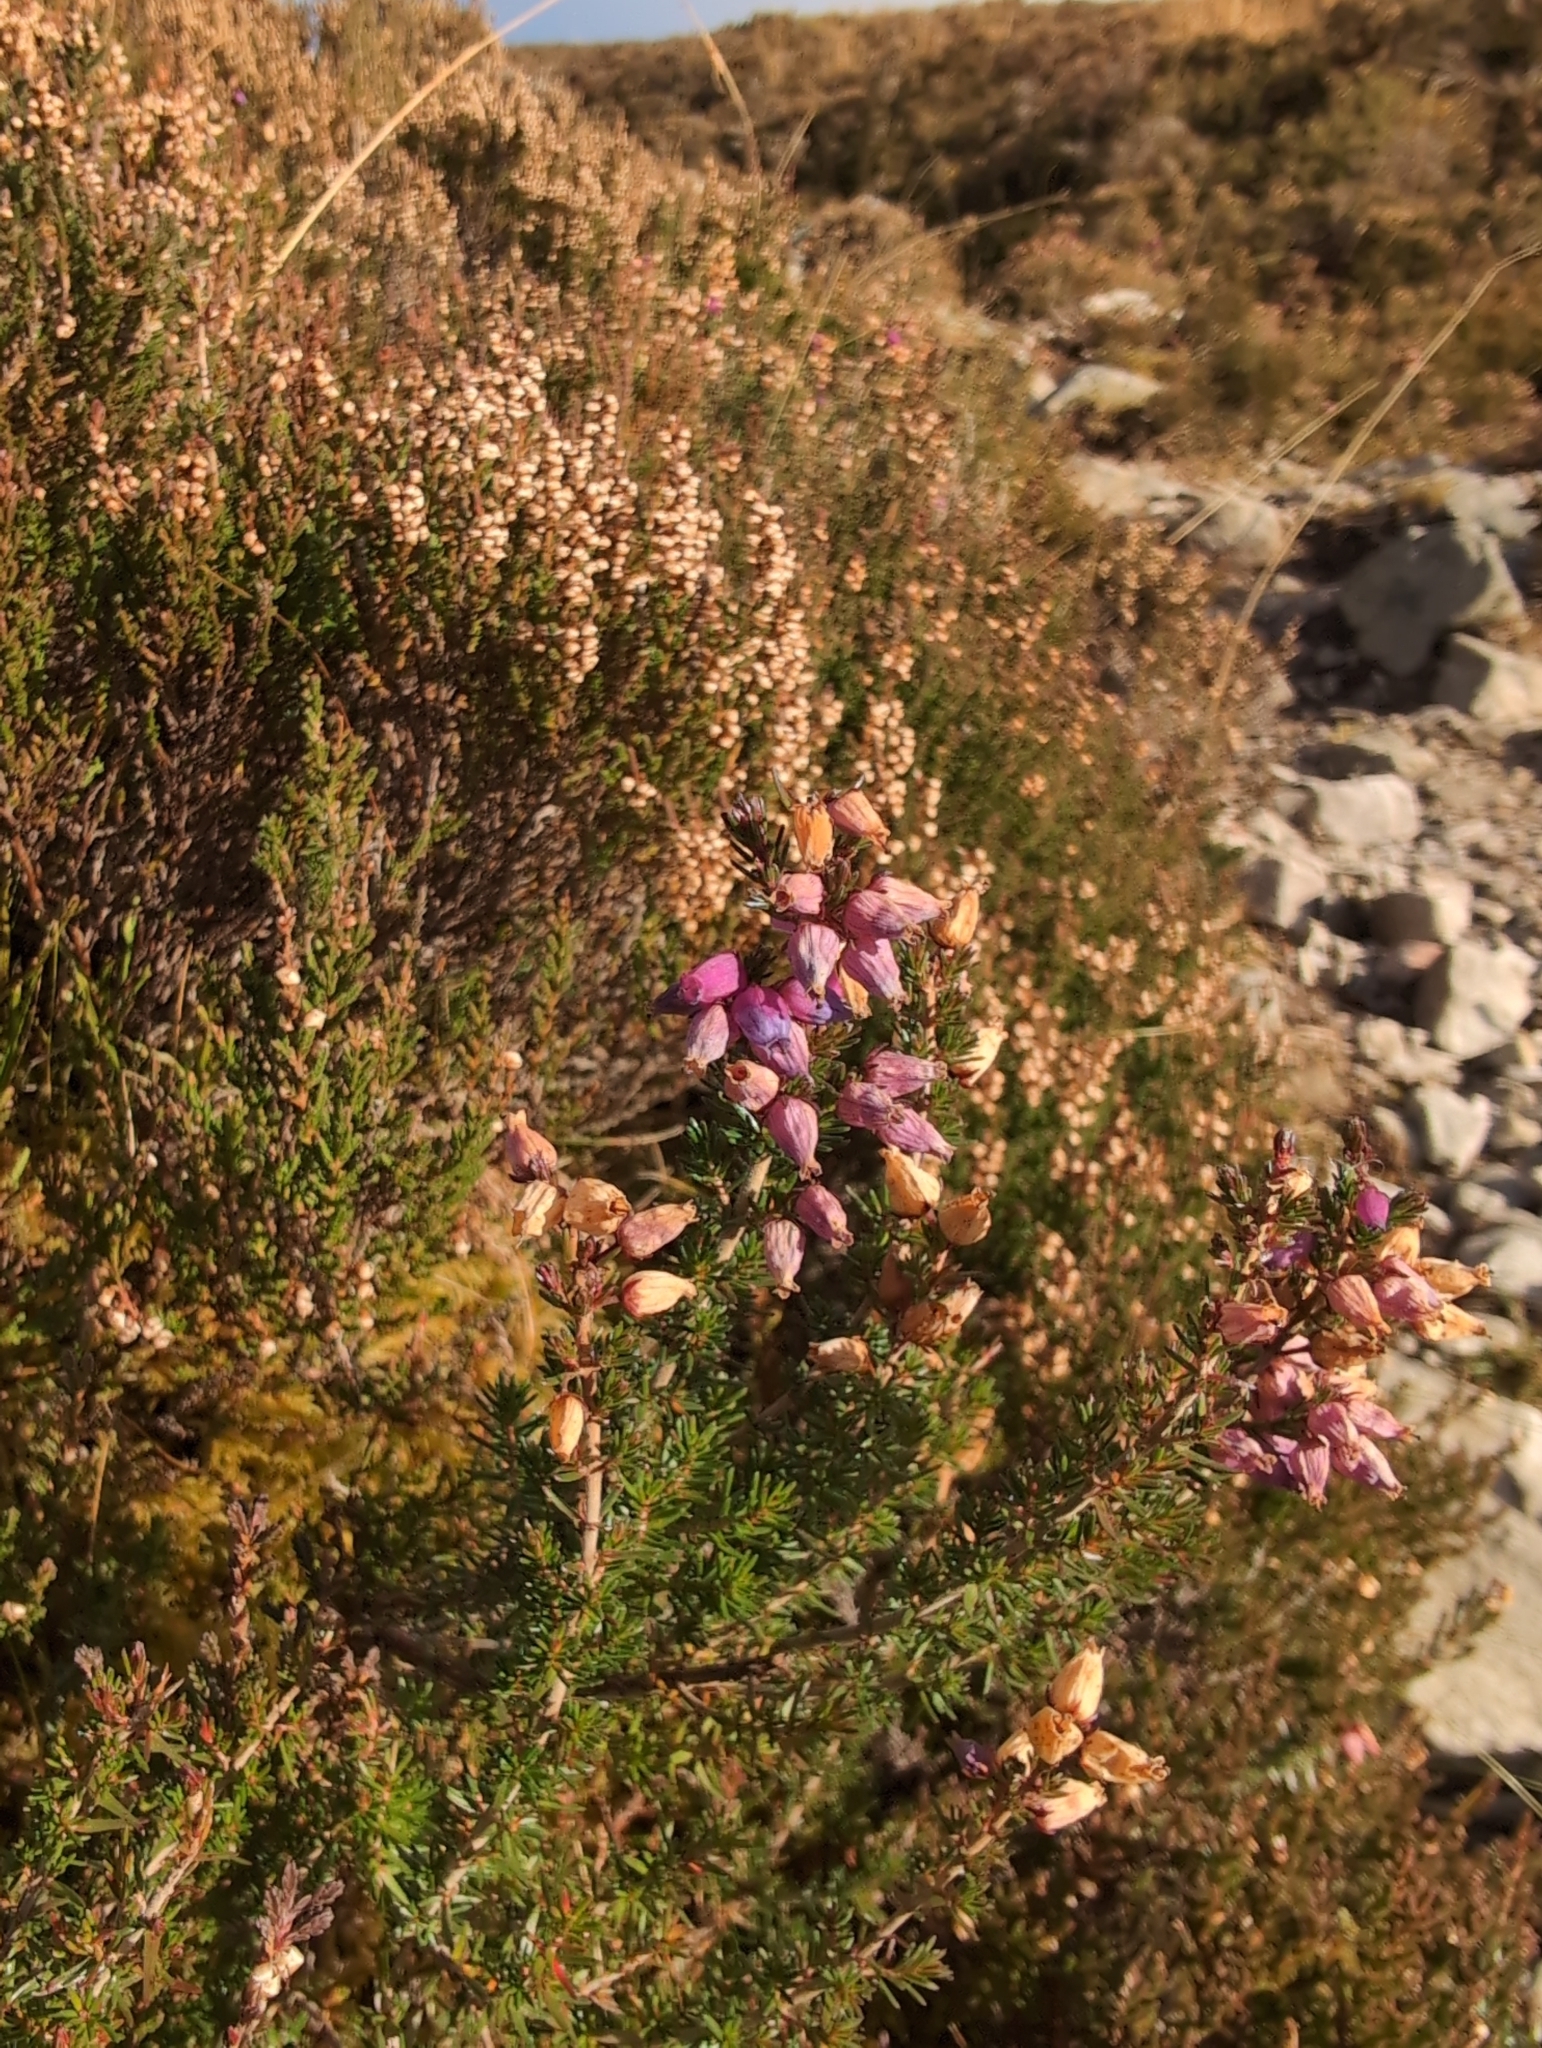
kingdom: Plantae
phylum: Tracheophyta
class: Magnoliopsida
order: Ericales
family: Ericaceae
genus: Erica
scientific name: Erica cinerea
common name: Bell heather
